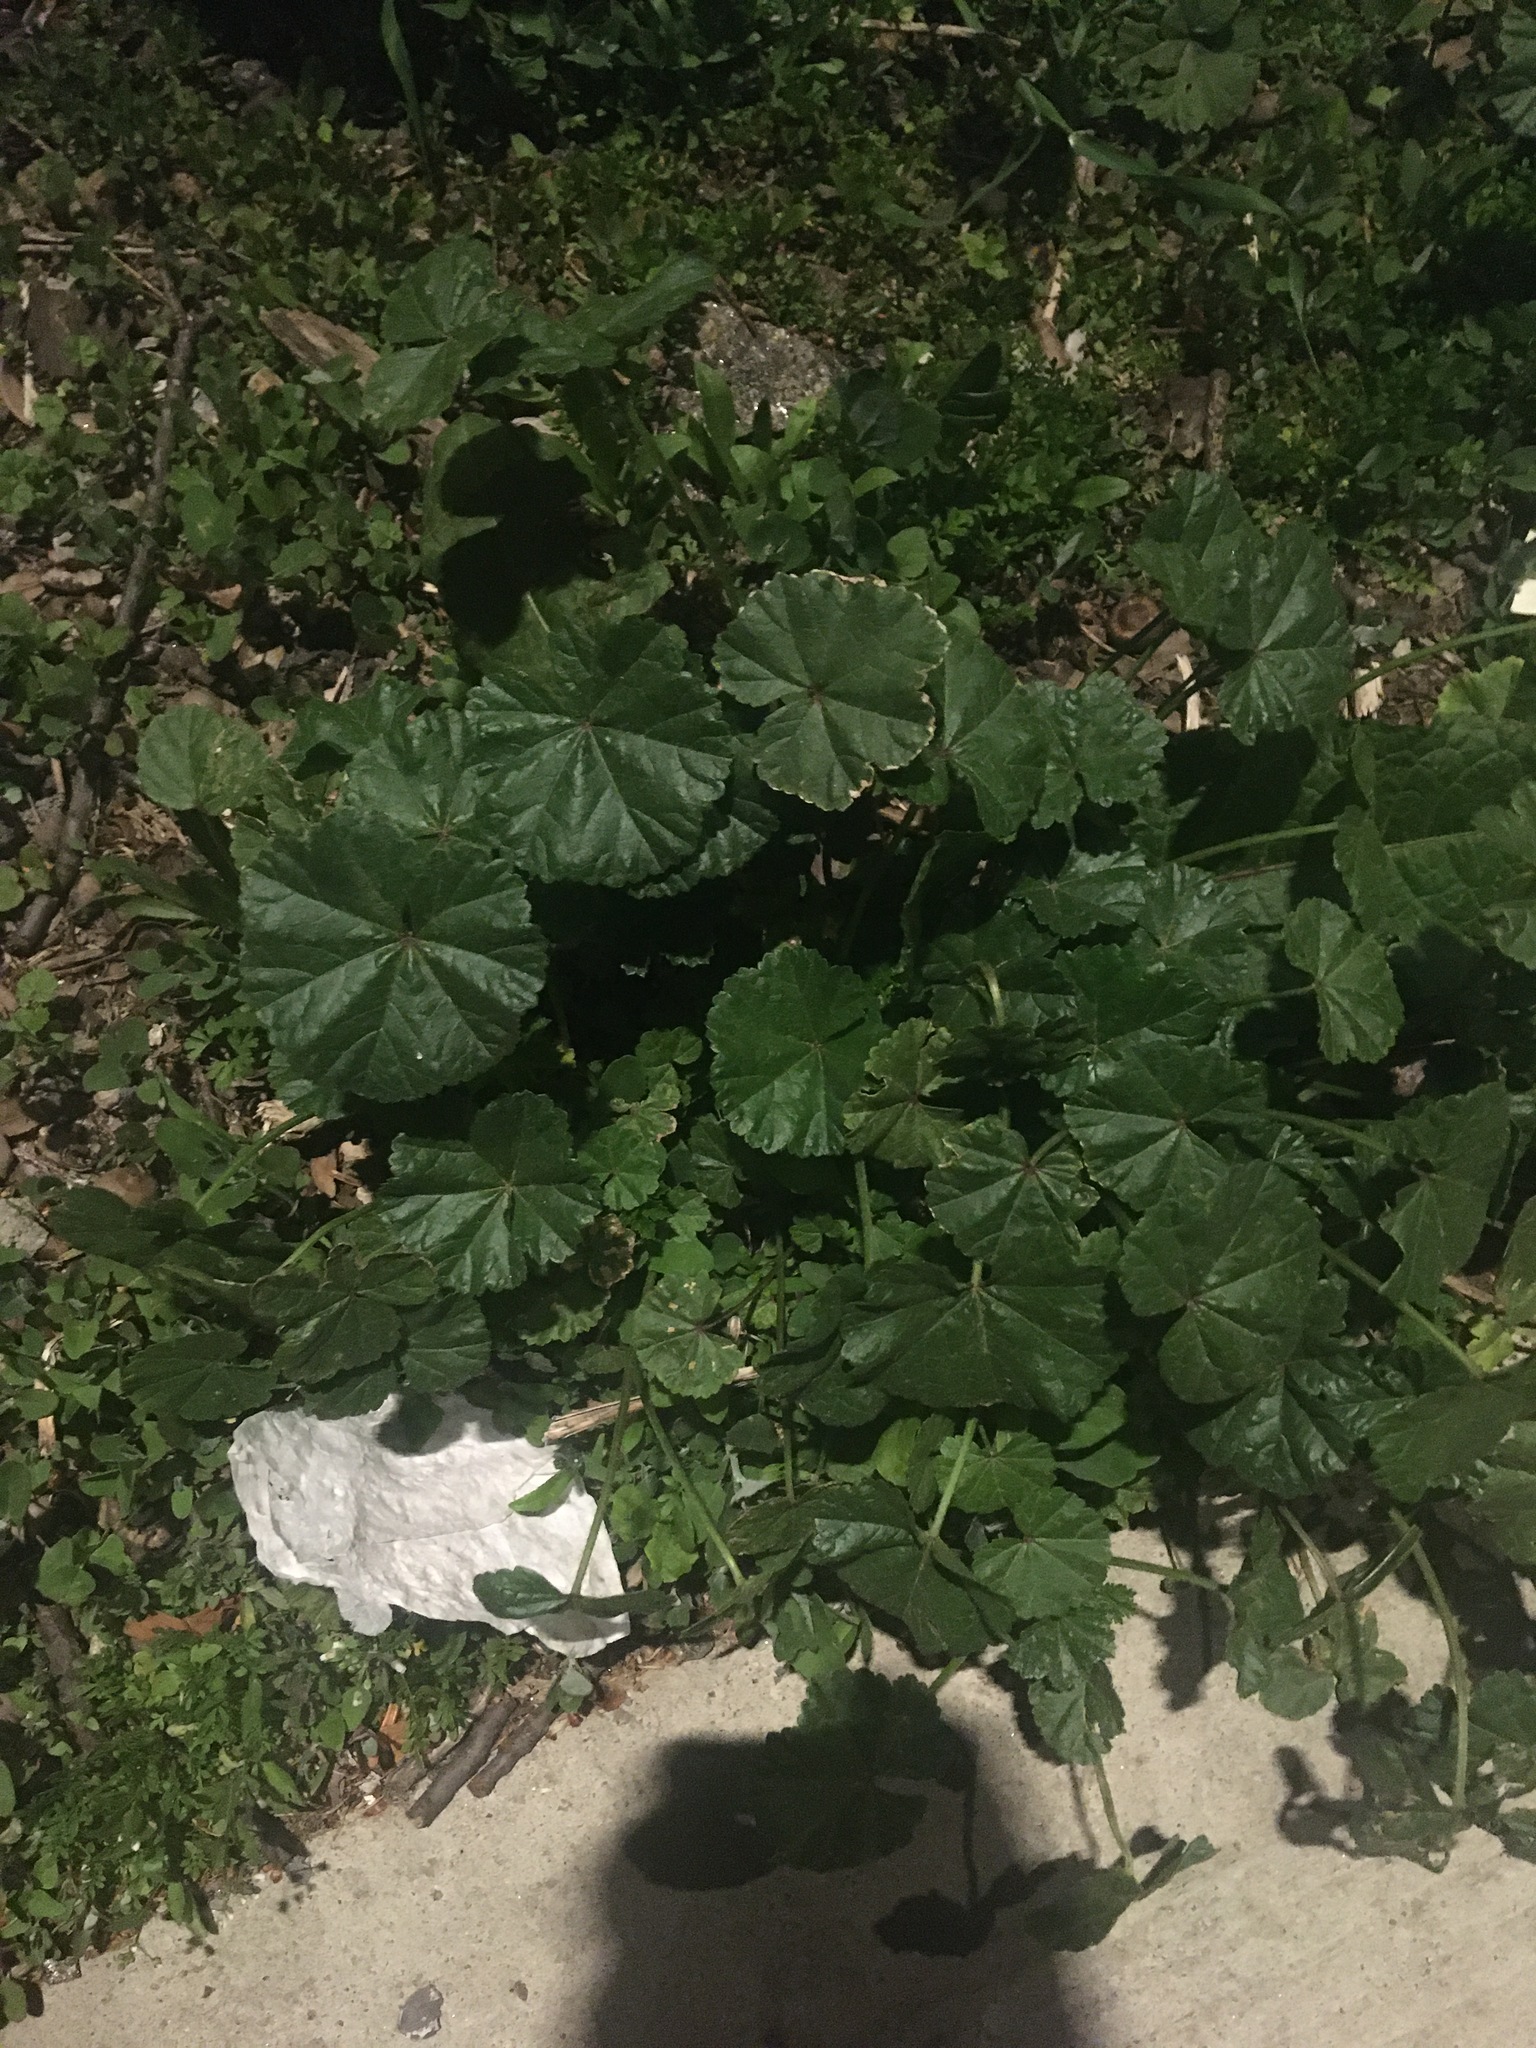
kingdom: Plantae
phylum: Tracheophyta
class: Magnoliopsida
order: Malvales
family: Malvaceae
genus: Malva
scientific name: Malva neglecta
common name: Common mallow
